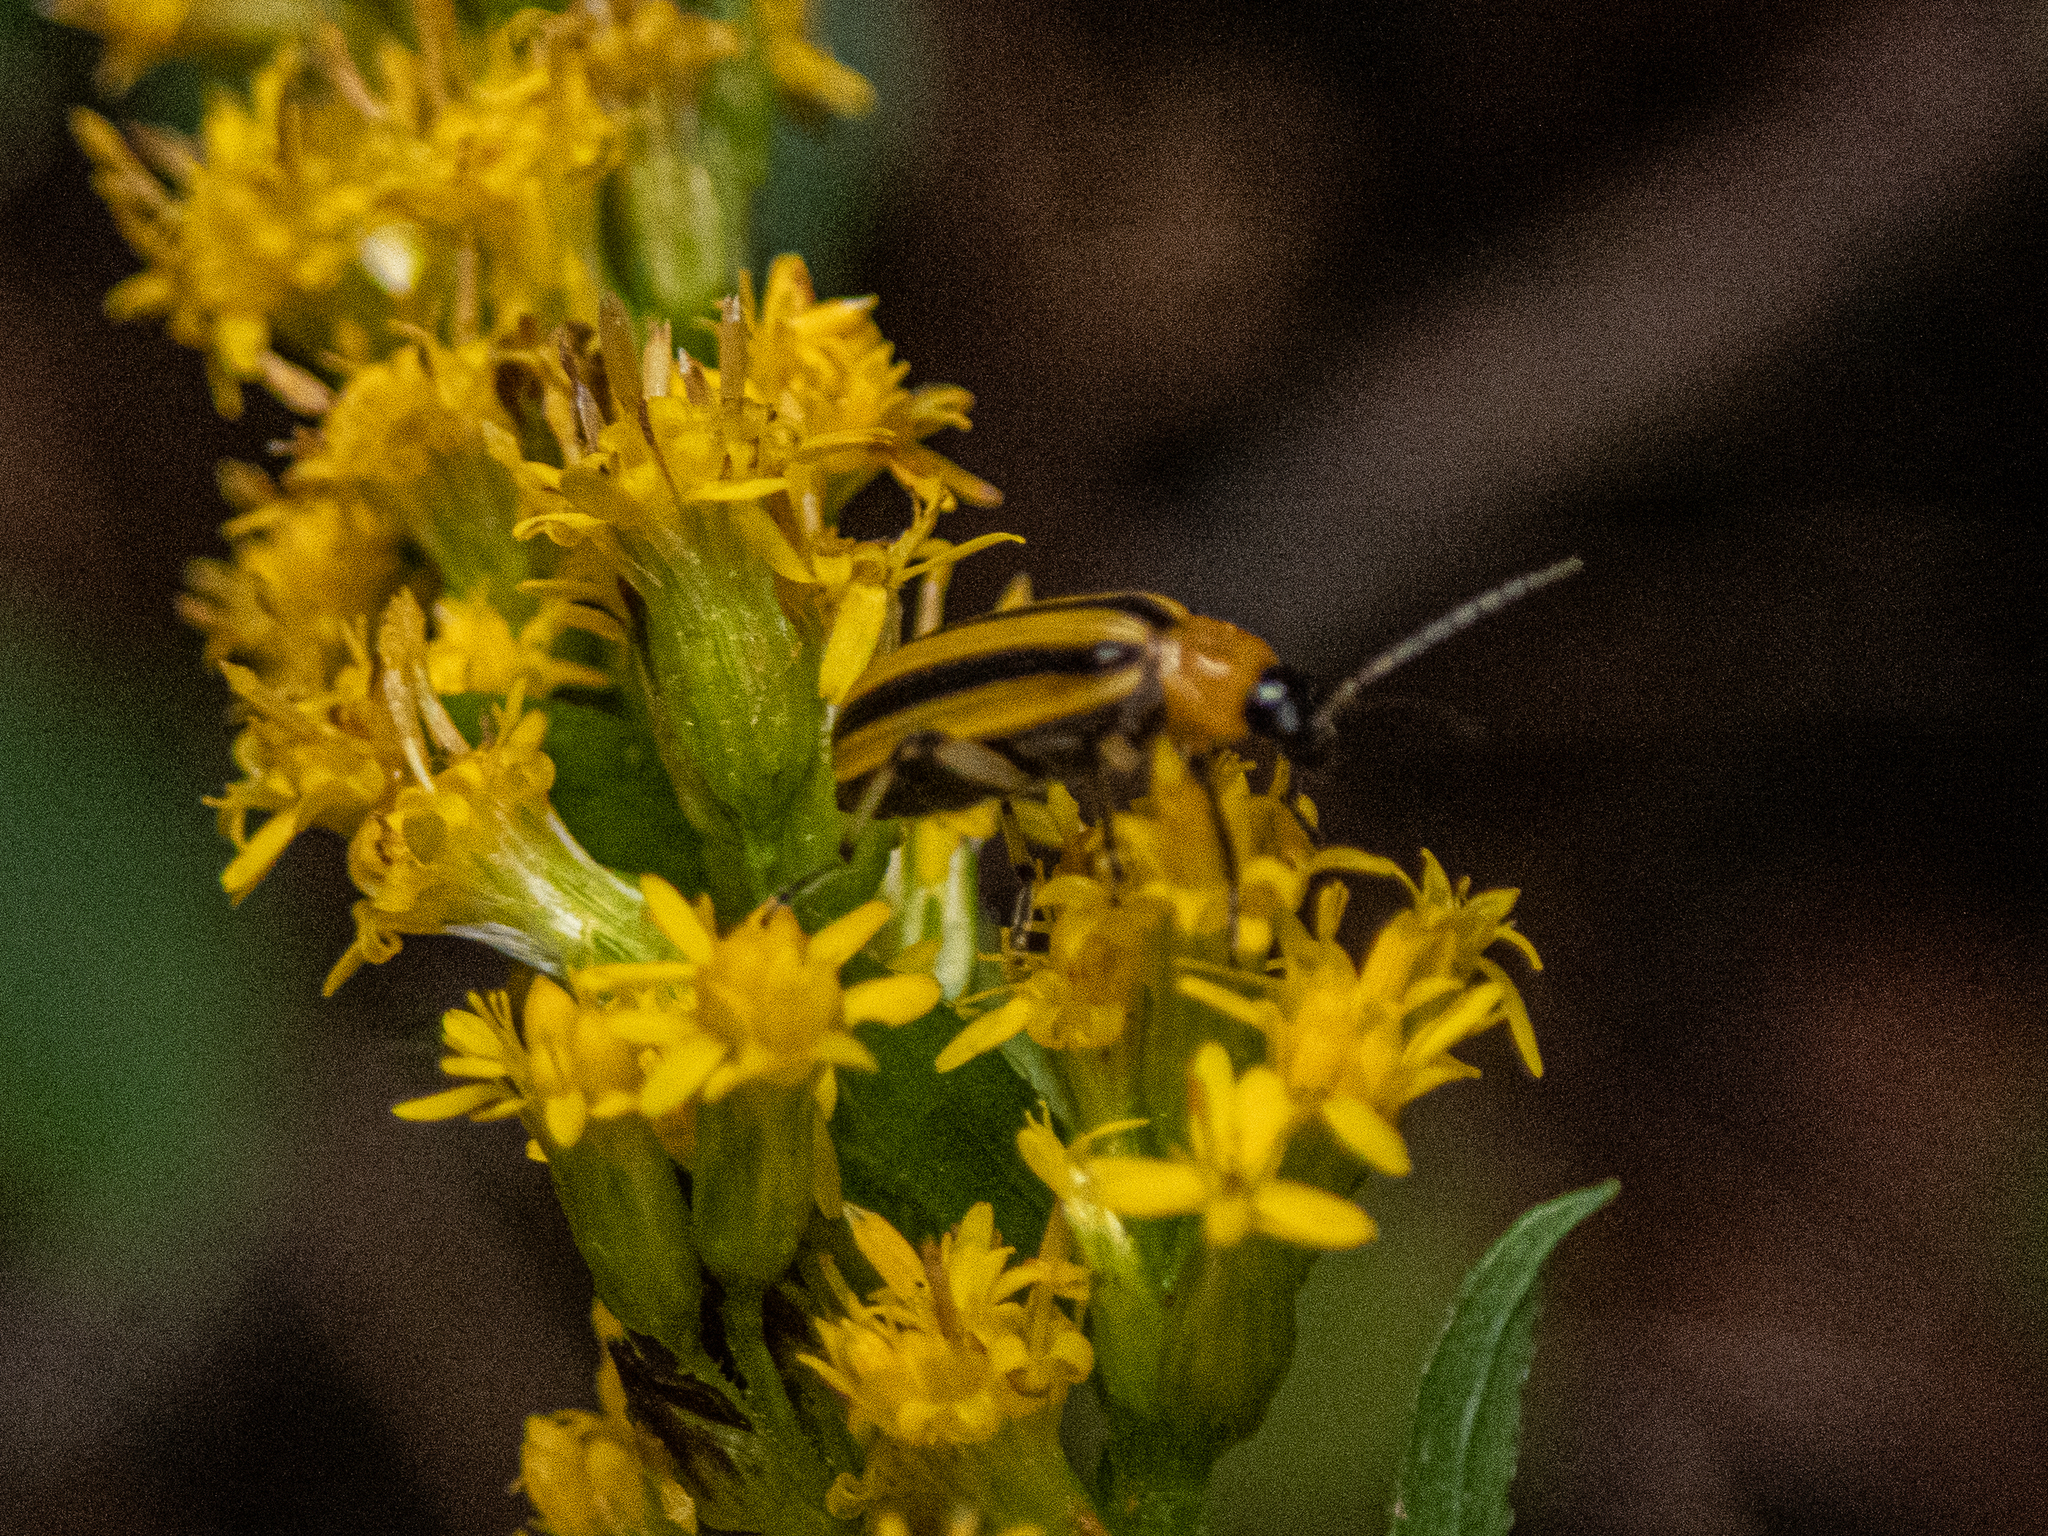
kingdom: Animalia
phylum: Arthropoda
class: Insecta
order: Coleoptera
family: Chrysomelidae
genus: Acalymma
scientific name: Acalymma vittatum
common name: Striped cucumber beetle
